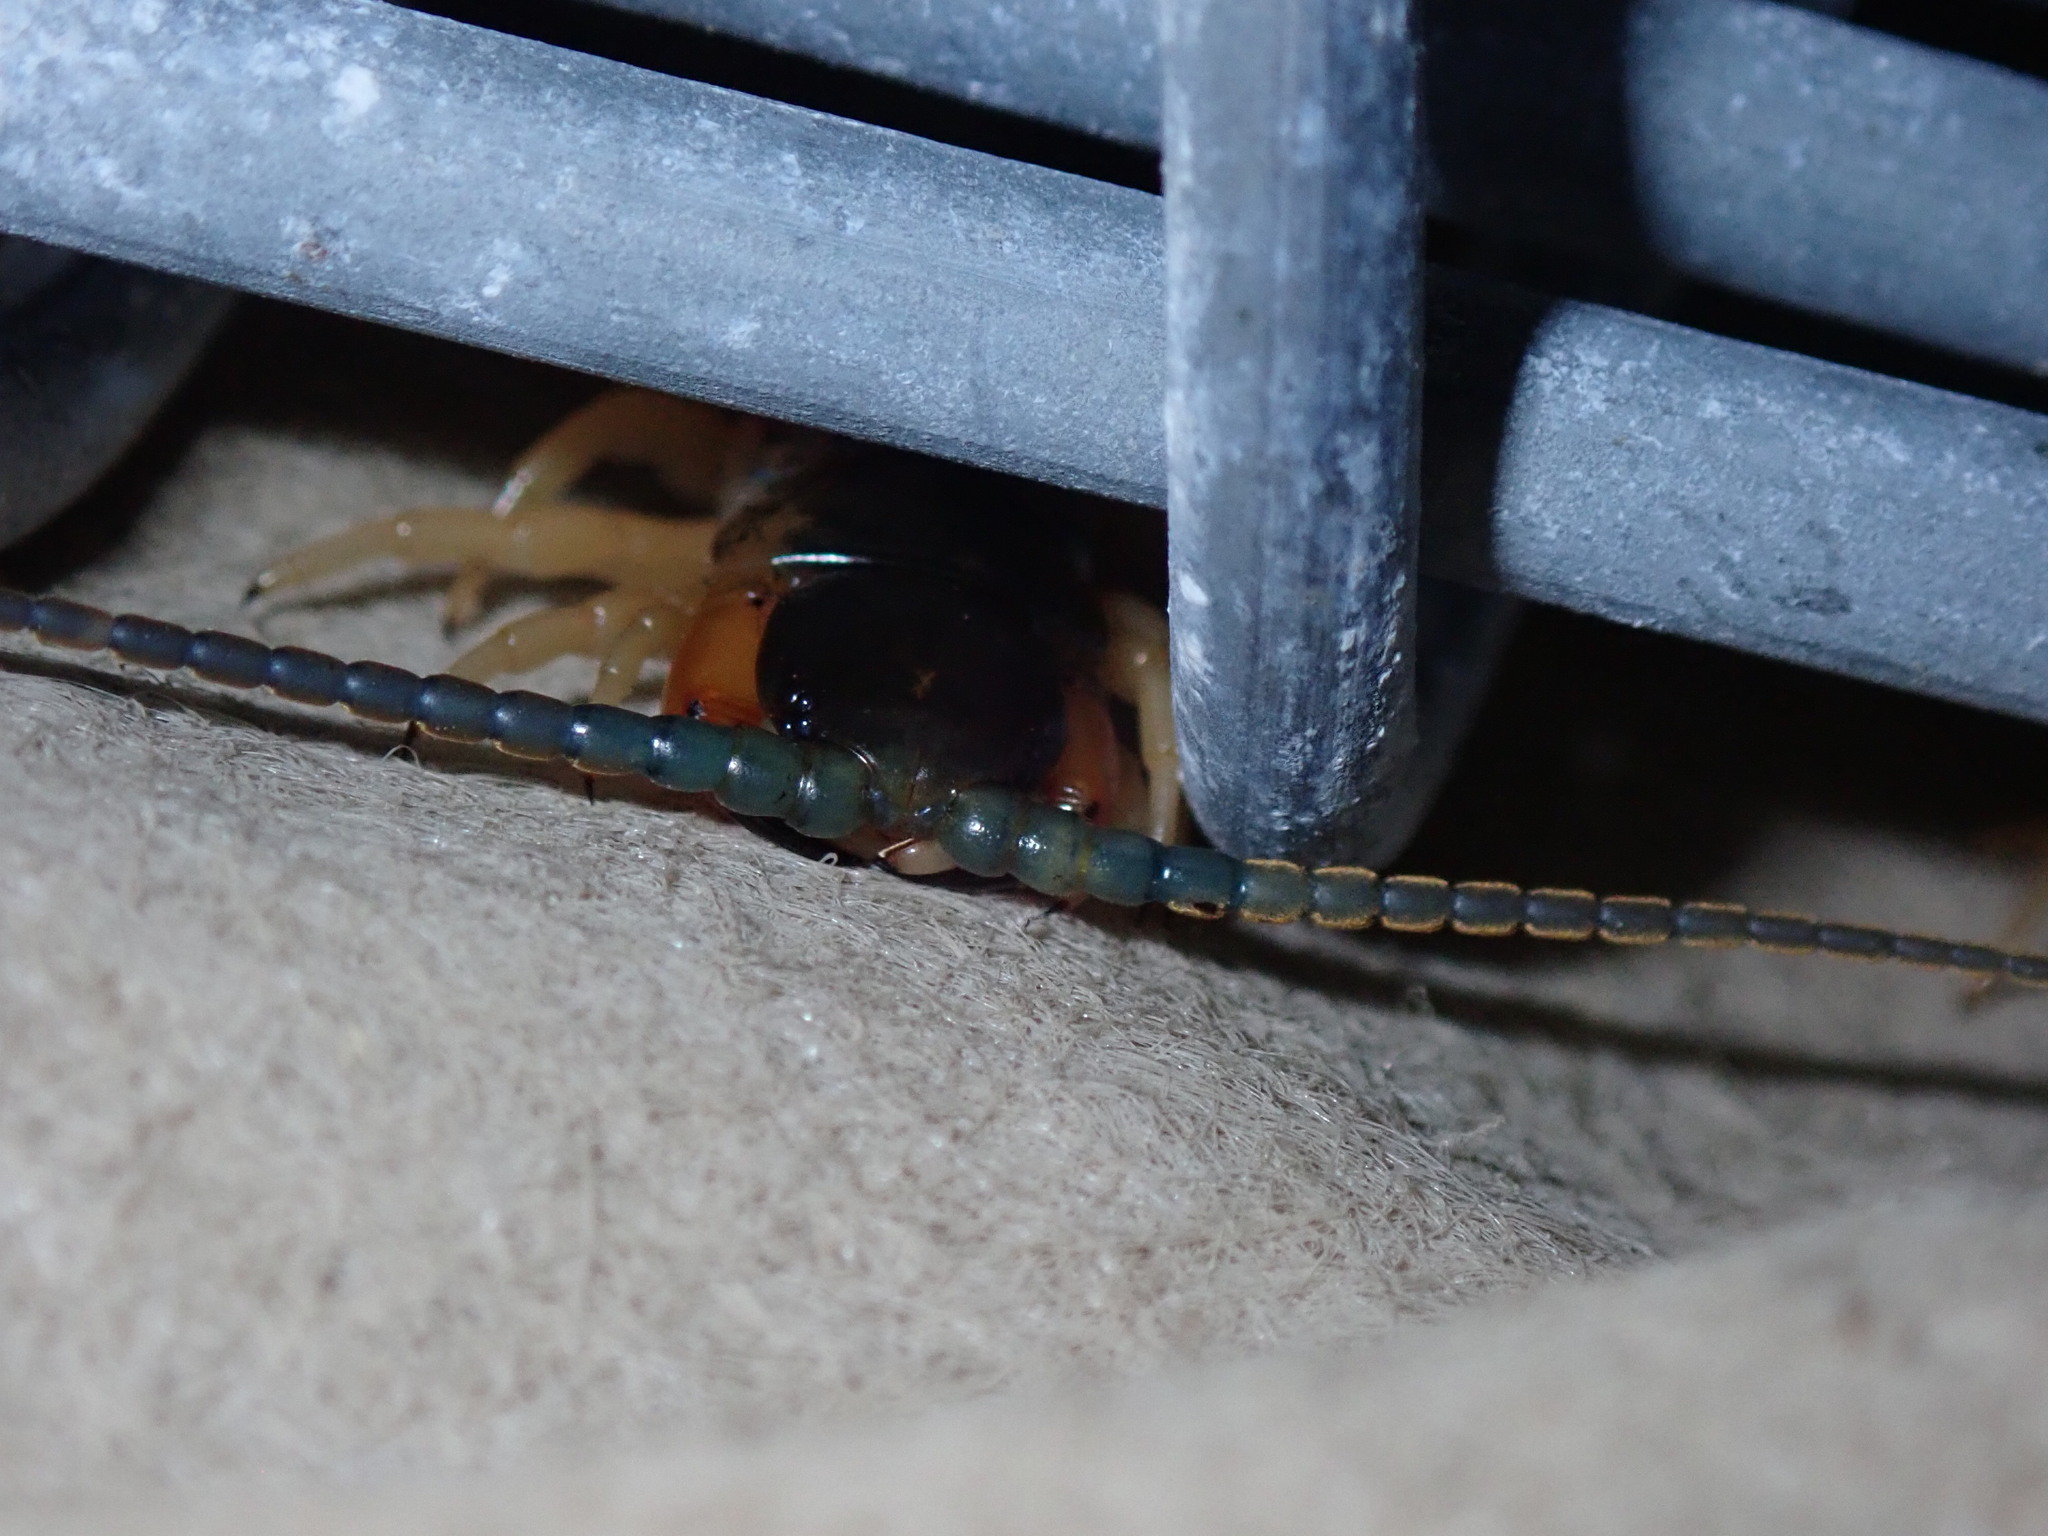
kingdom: Animalia
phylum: Arthropoda
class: Chilopoda
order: Scolopendromorpha
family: Scolopendridae
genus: Ethmostigmus
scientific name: Ethmostigmus trigonopodus
